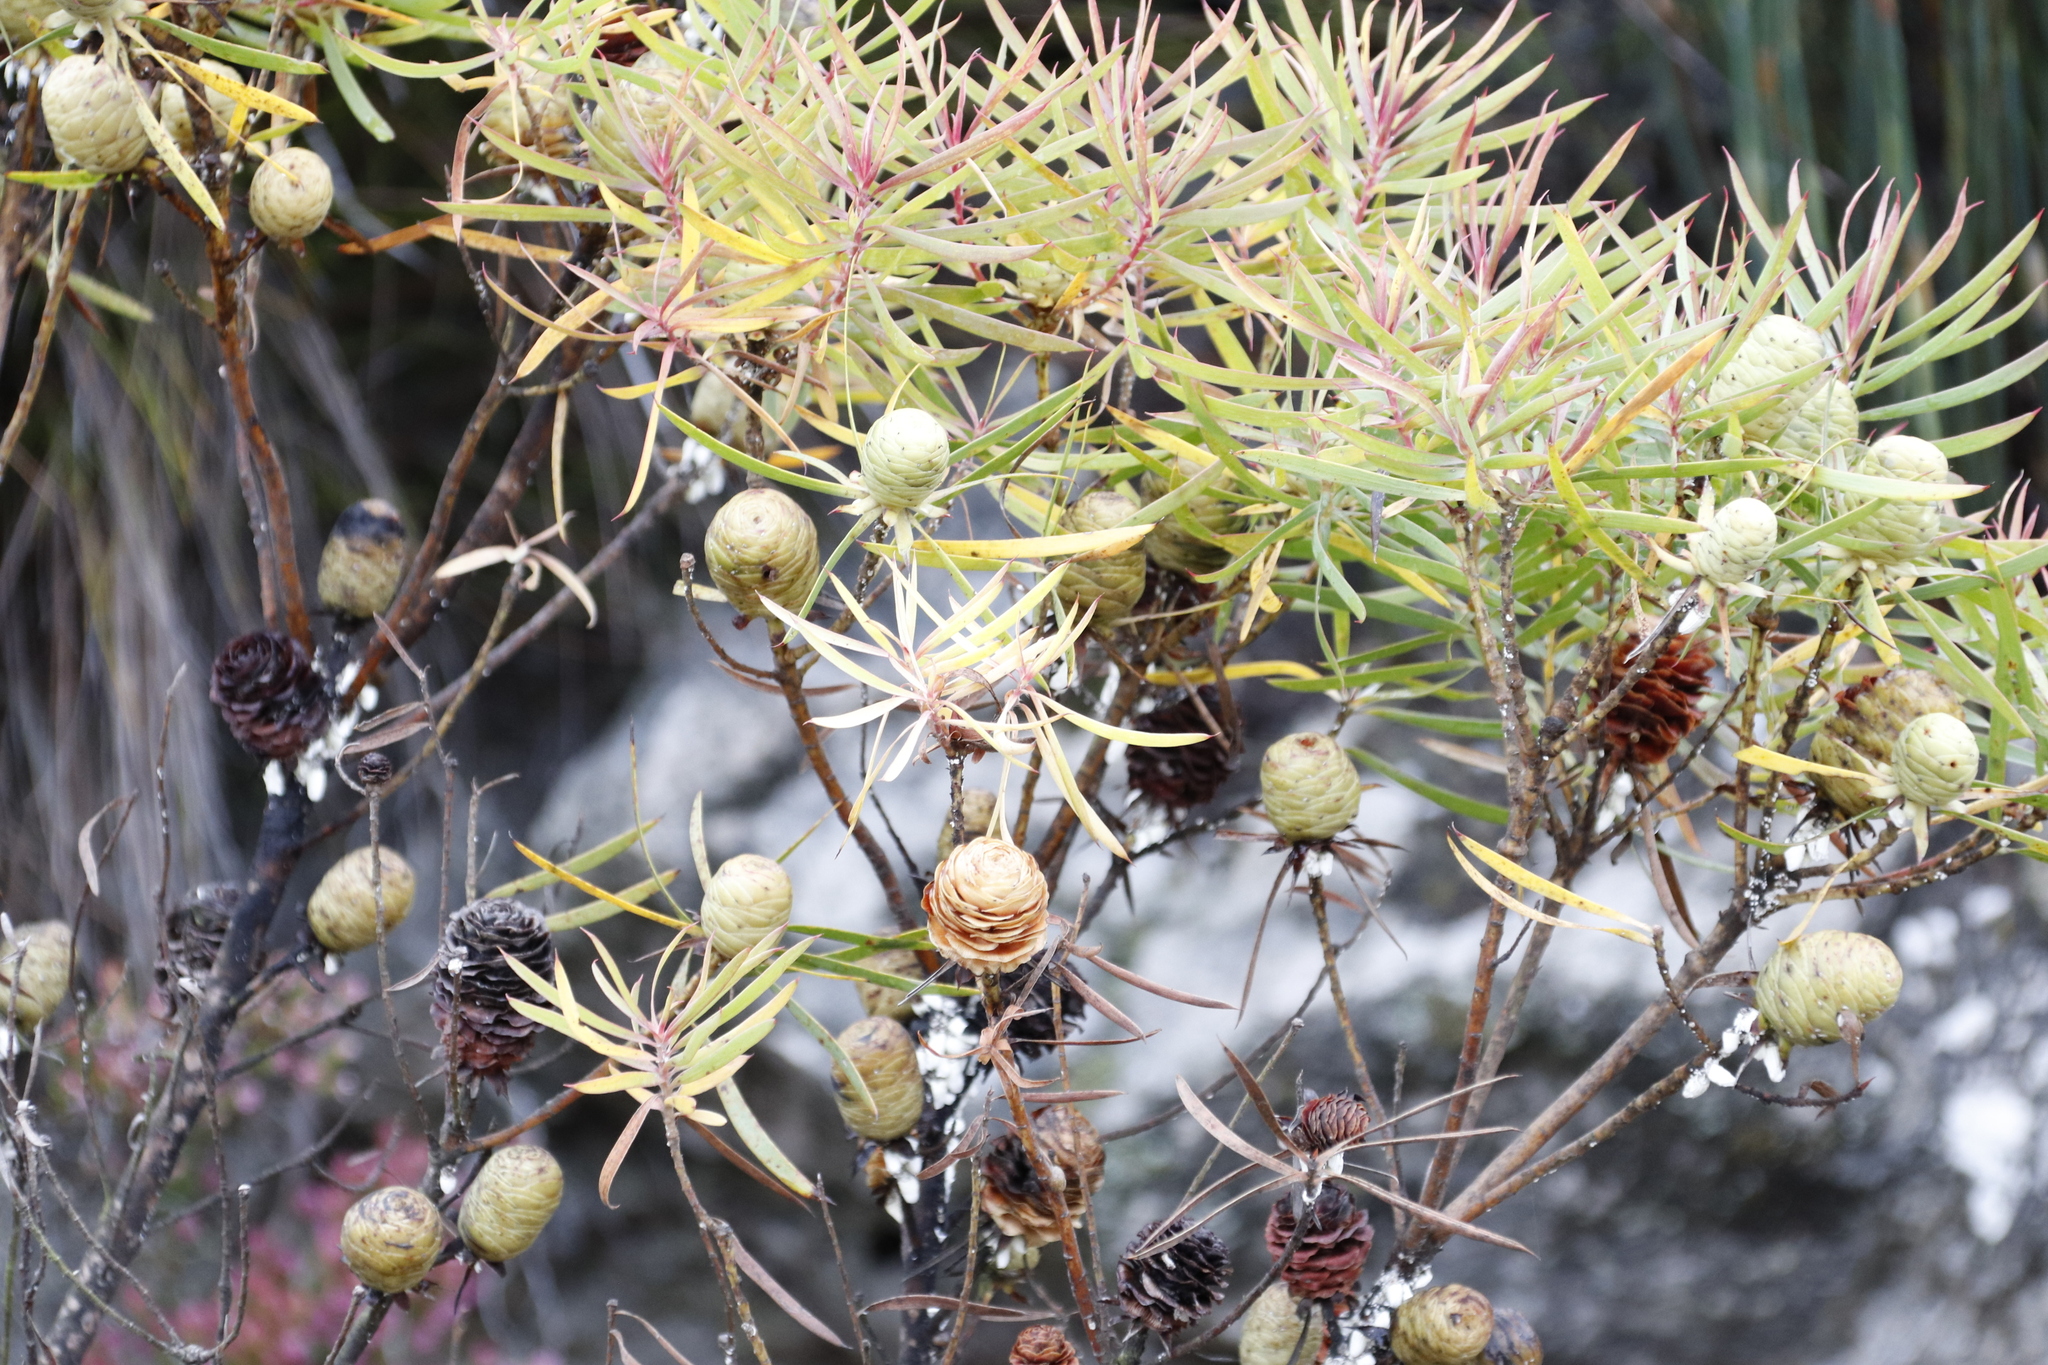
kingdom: Plantae
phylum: Tracheophyta
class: Magnoliopsida
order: Proteales
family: Proteaceae
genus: Leucadendron
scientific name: Leucadendron salicifolium
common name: Common stream conebush
